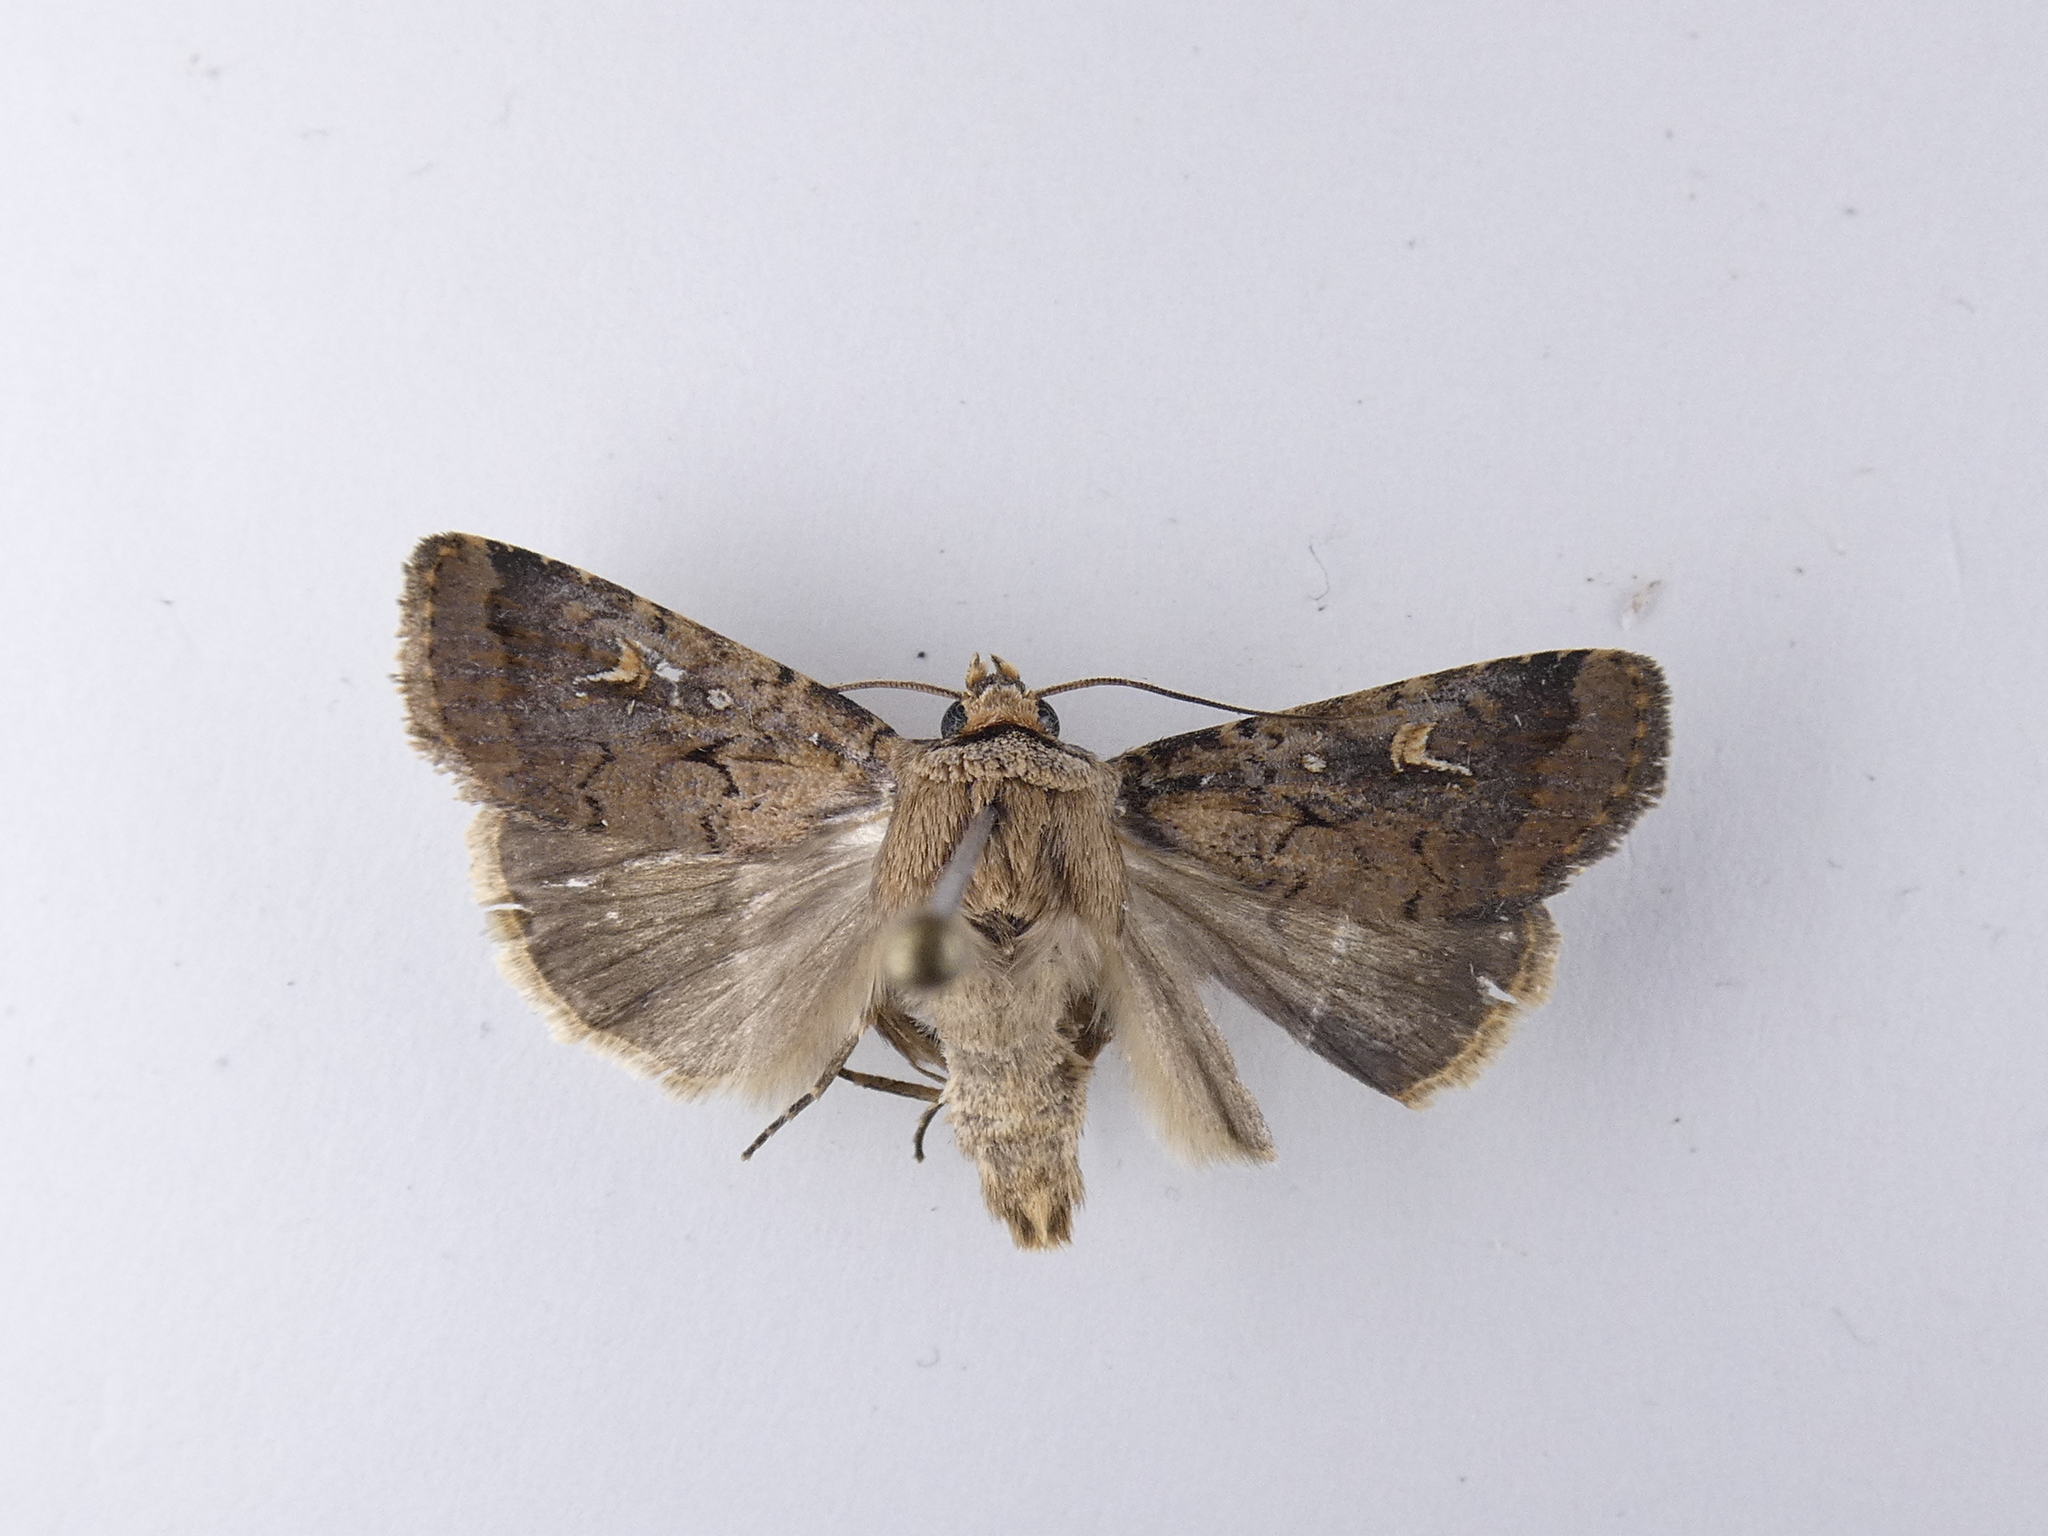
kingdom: Animalia
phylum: Arthropoda
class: Insecta
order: Lepidoptera
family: Noctuidae
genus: Proteuxoa
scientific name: Proteuxoa tetronycha
